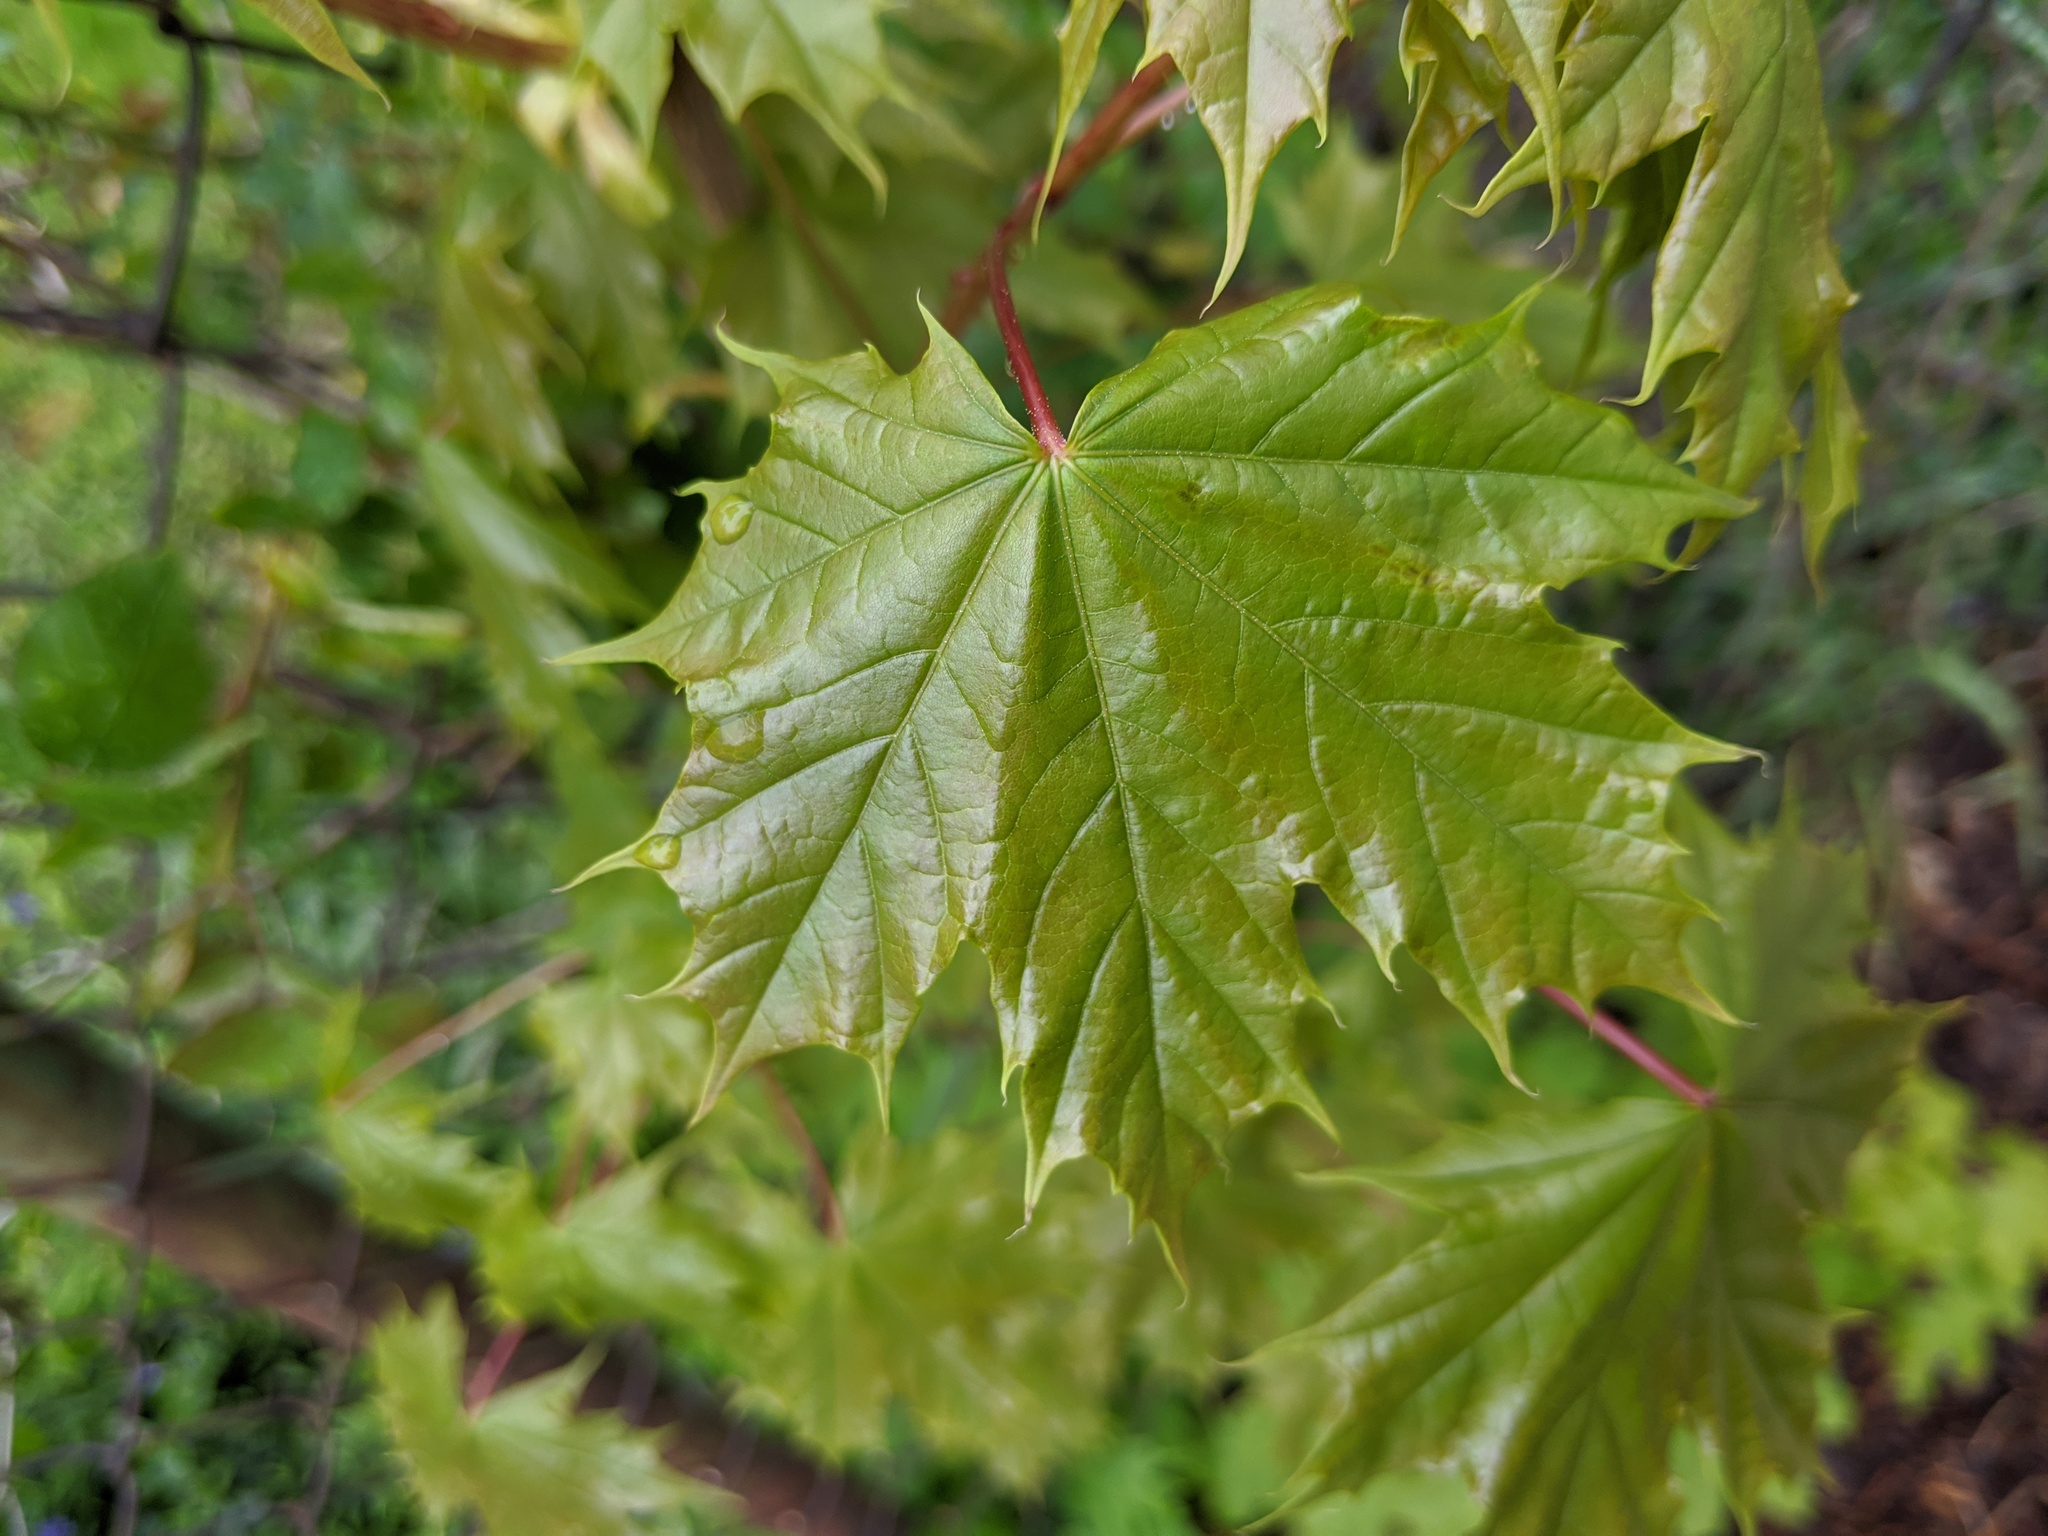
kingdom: Plantae
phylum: Tracheophyta
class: Magnoliopsida
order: Sapindales
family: Sapindaceae
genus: Acer
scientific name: Acer platanoides
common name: Norway maple
